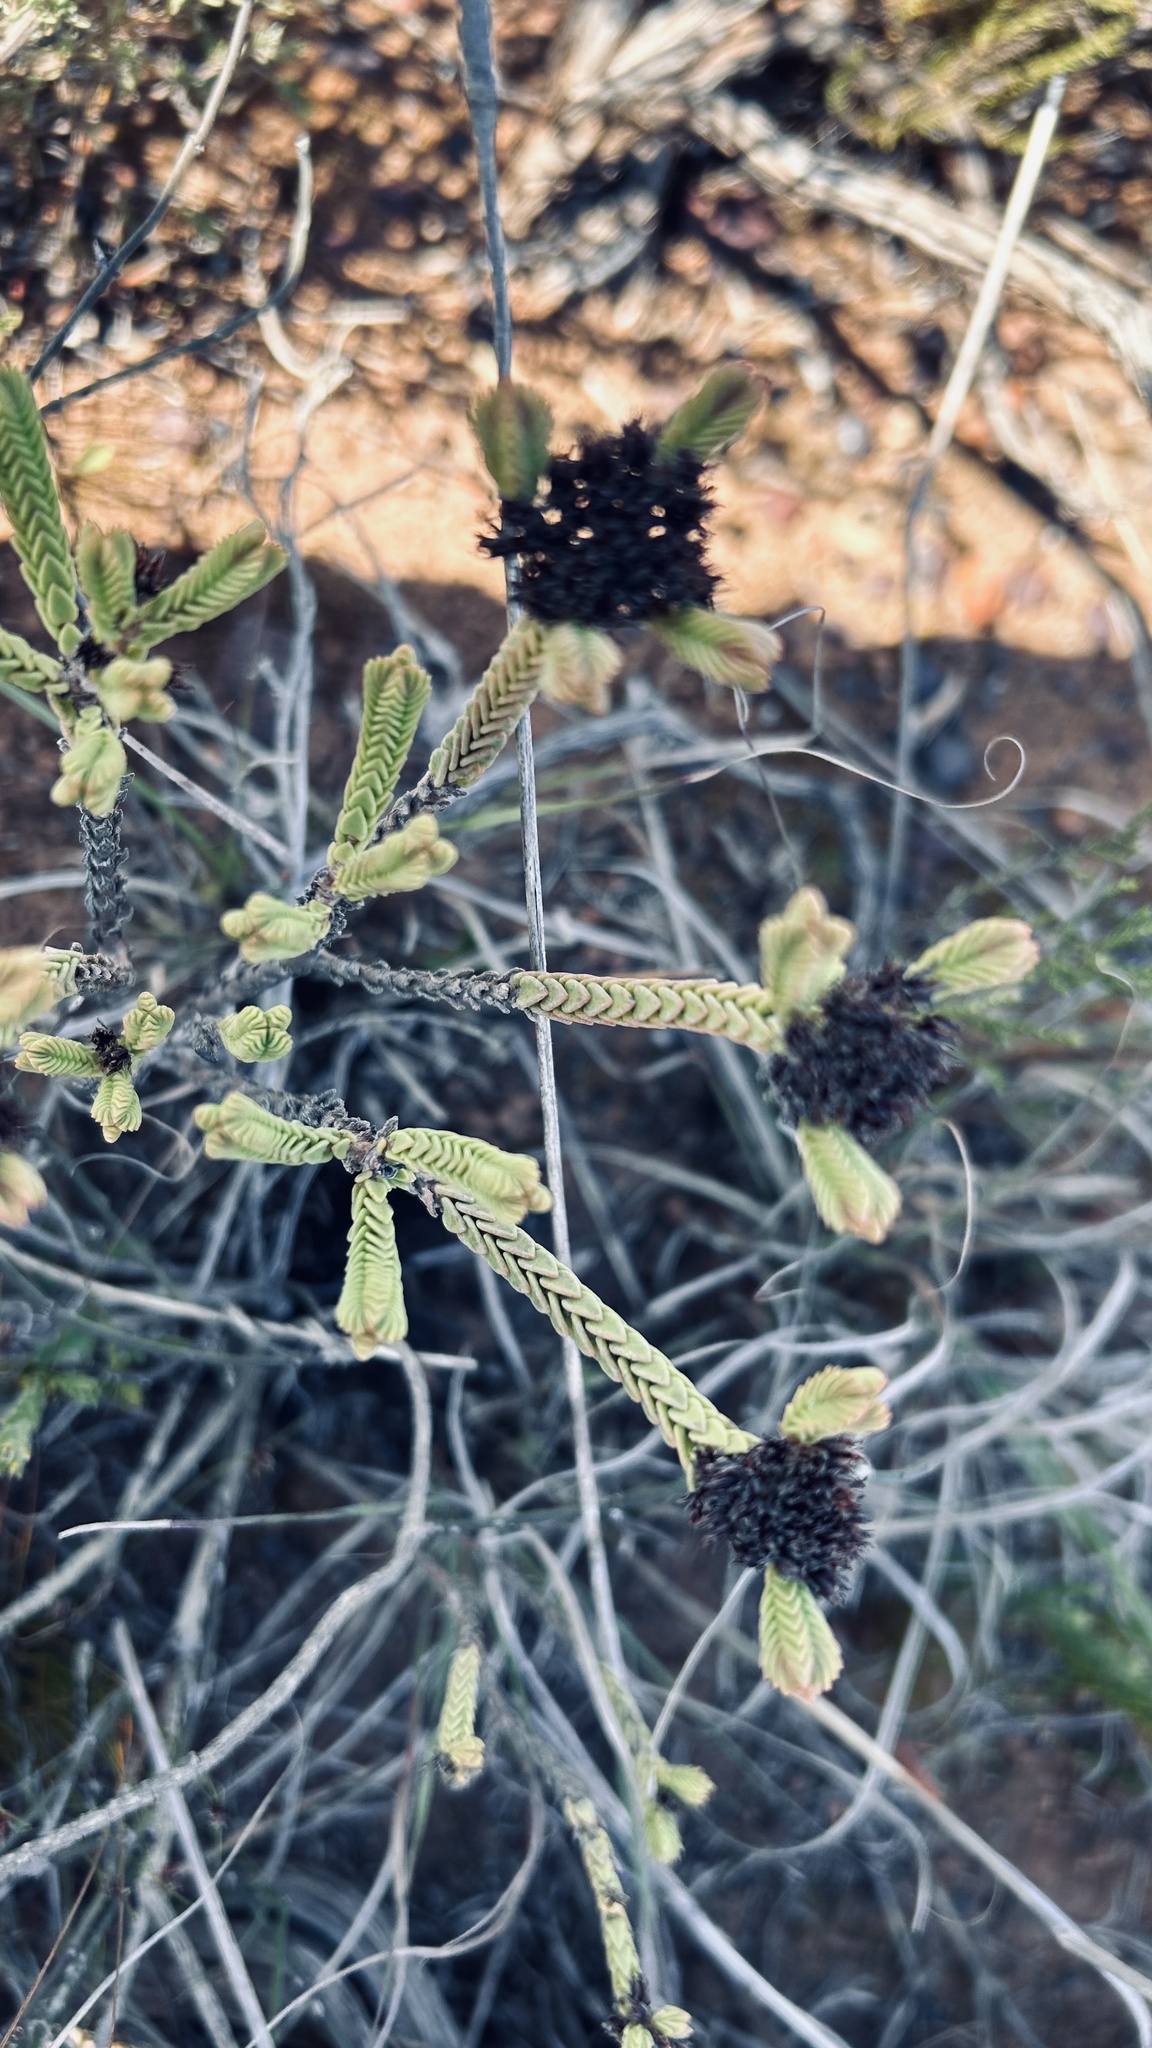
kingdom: Plantae
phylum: Tracheophyta
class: Magnoliopsida
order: Saxifragales
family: Crassulaceae
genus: Crassula
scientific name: Crassula ericoides
